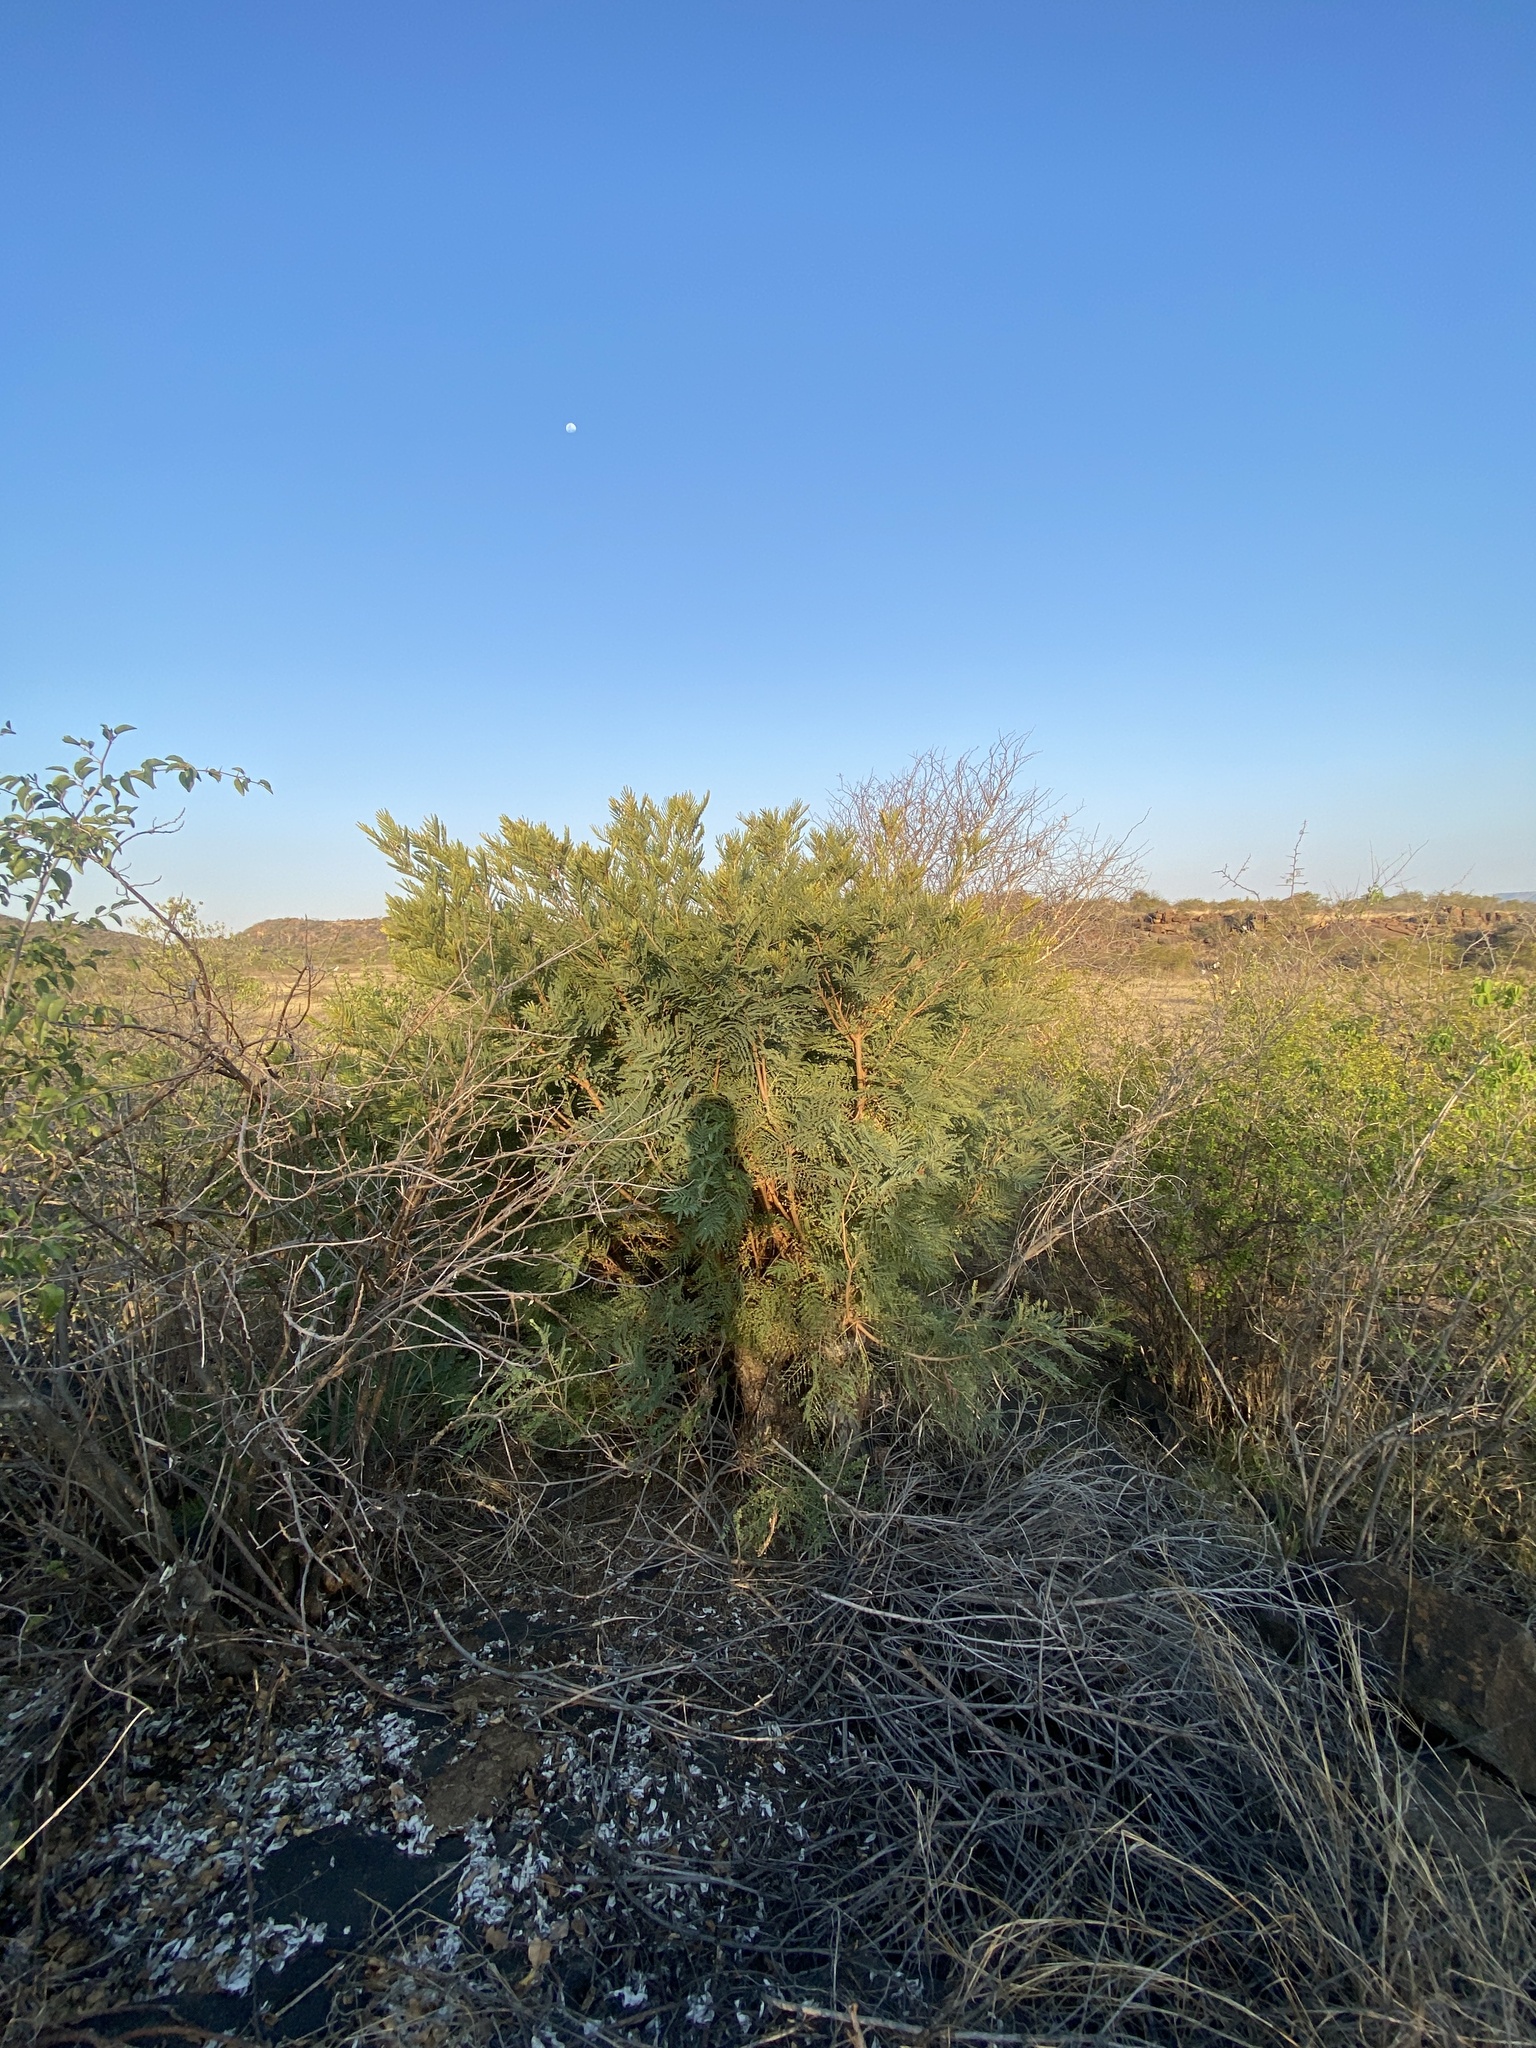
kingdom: Plantae
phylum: Tracheophyta
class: Magnoliopsida
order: Fabales
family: Fabaceae
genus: Peltophorum
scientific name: Peltophorum africanum
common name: African black wattle
